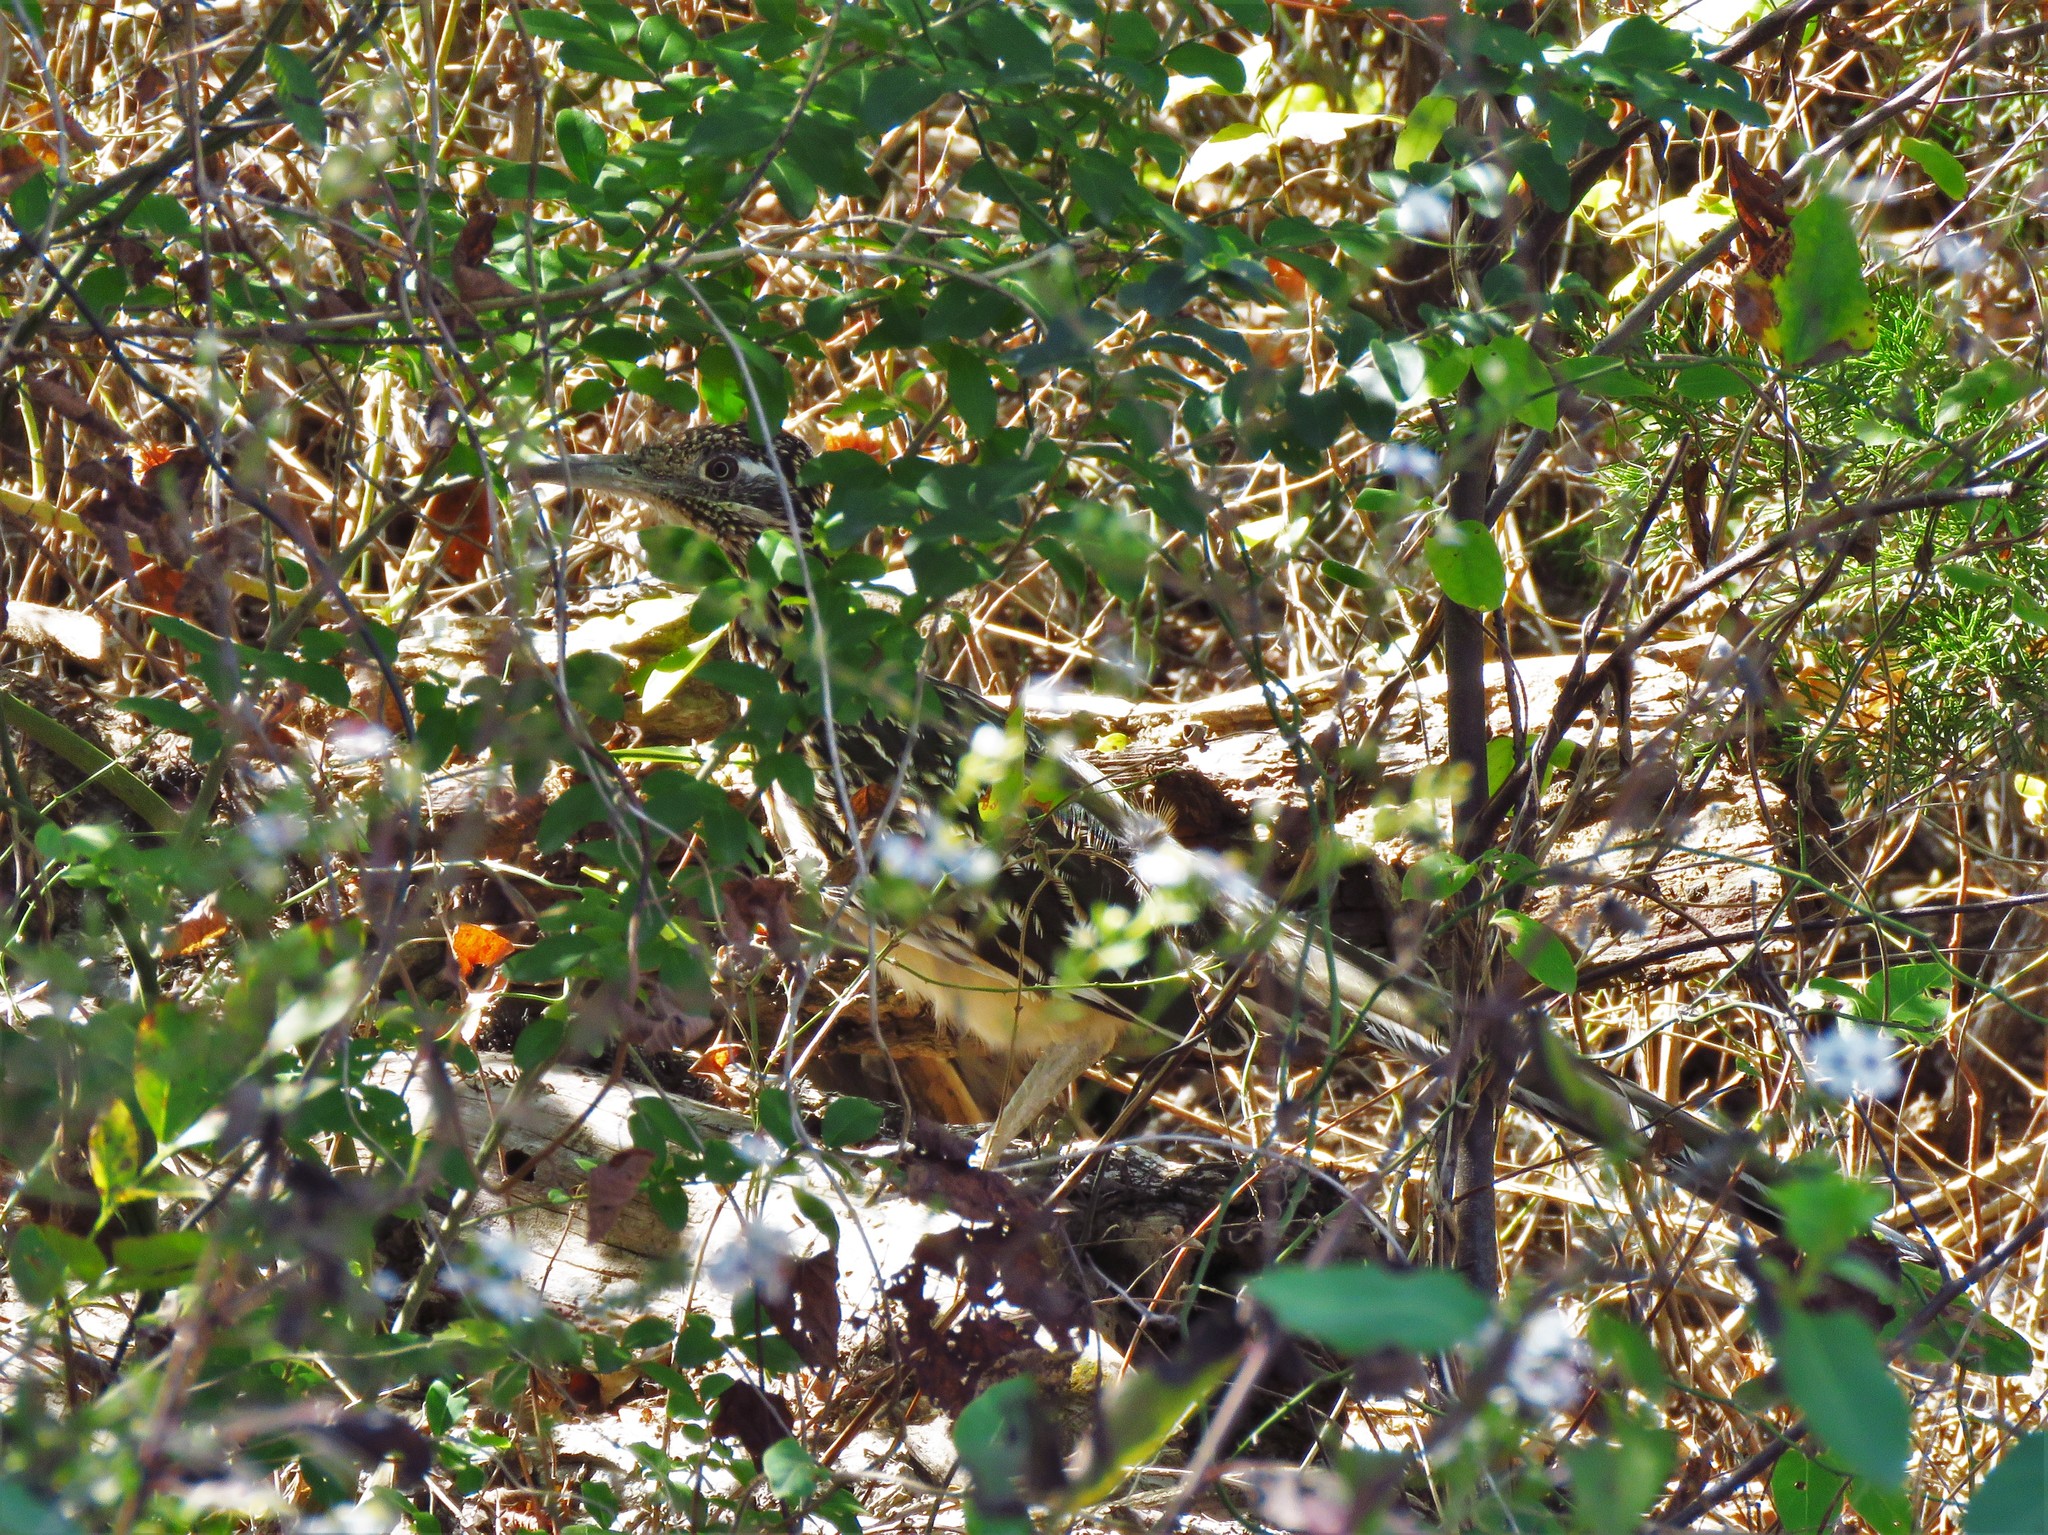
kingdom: Animalia
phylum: Chordata
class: Aves
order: Cuculiformes
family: Cuculidae
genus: Geococcyx
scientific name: Geococcyx californianus
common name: Greater roadrunner
